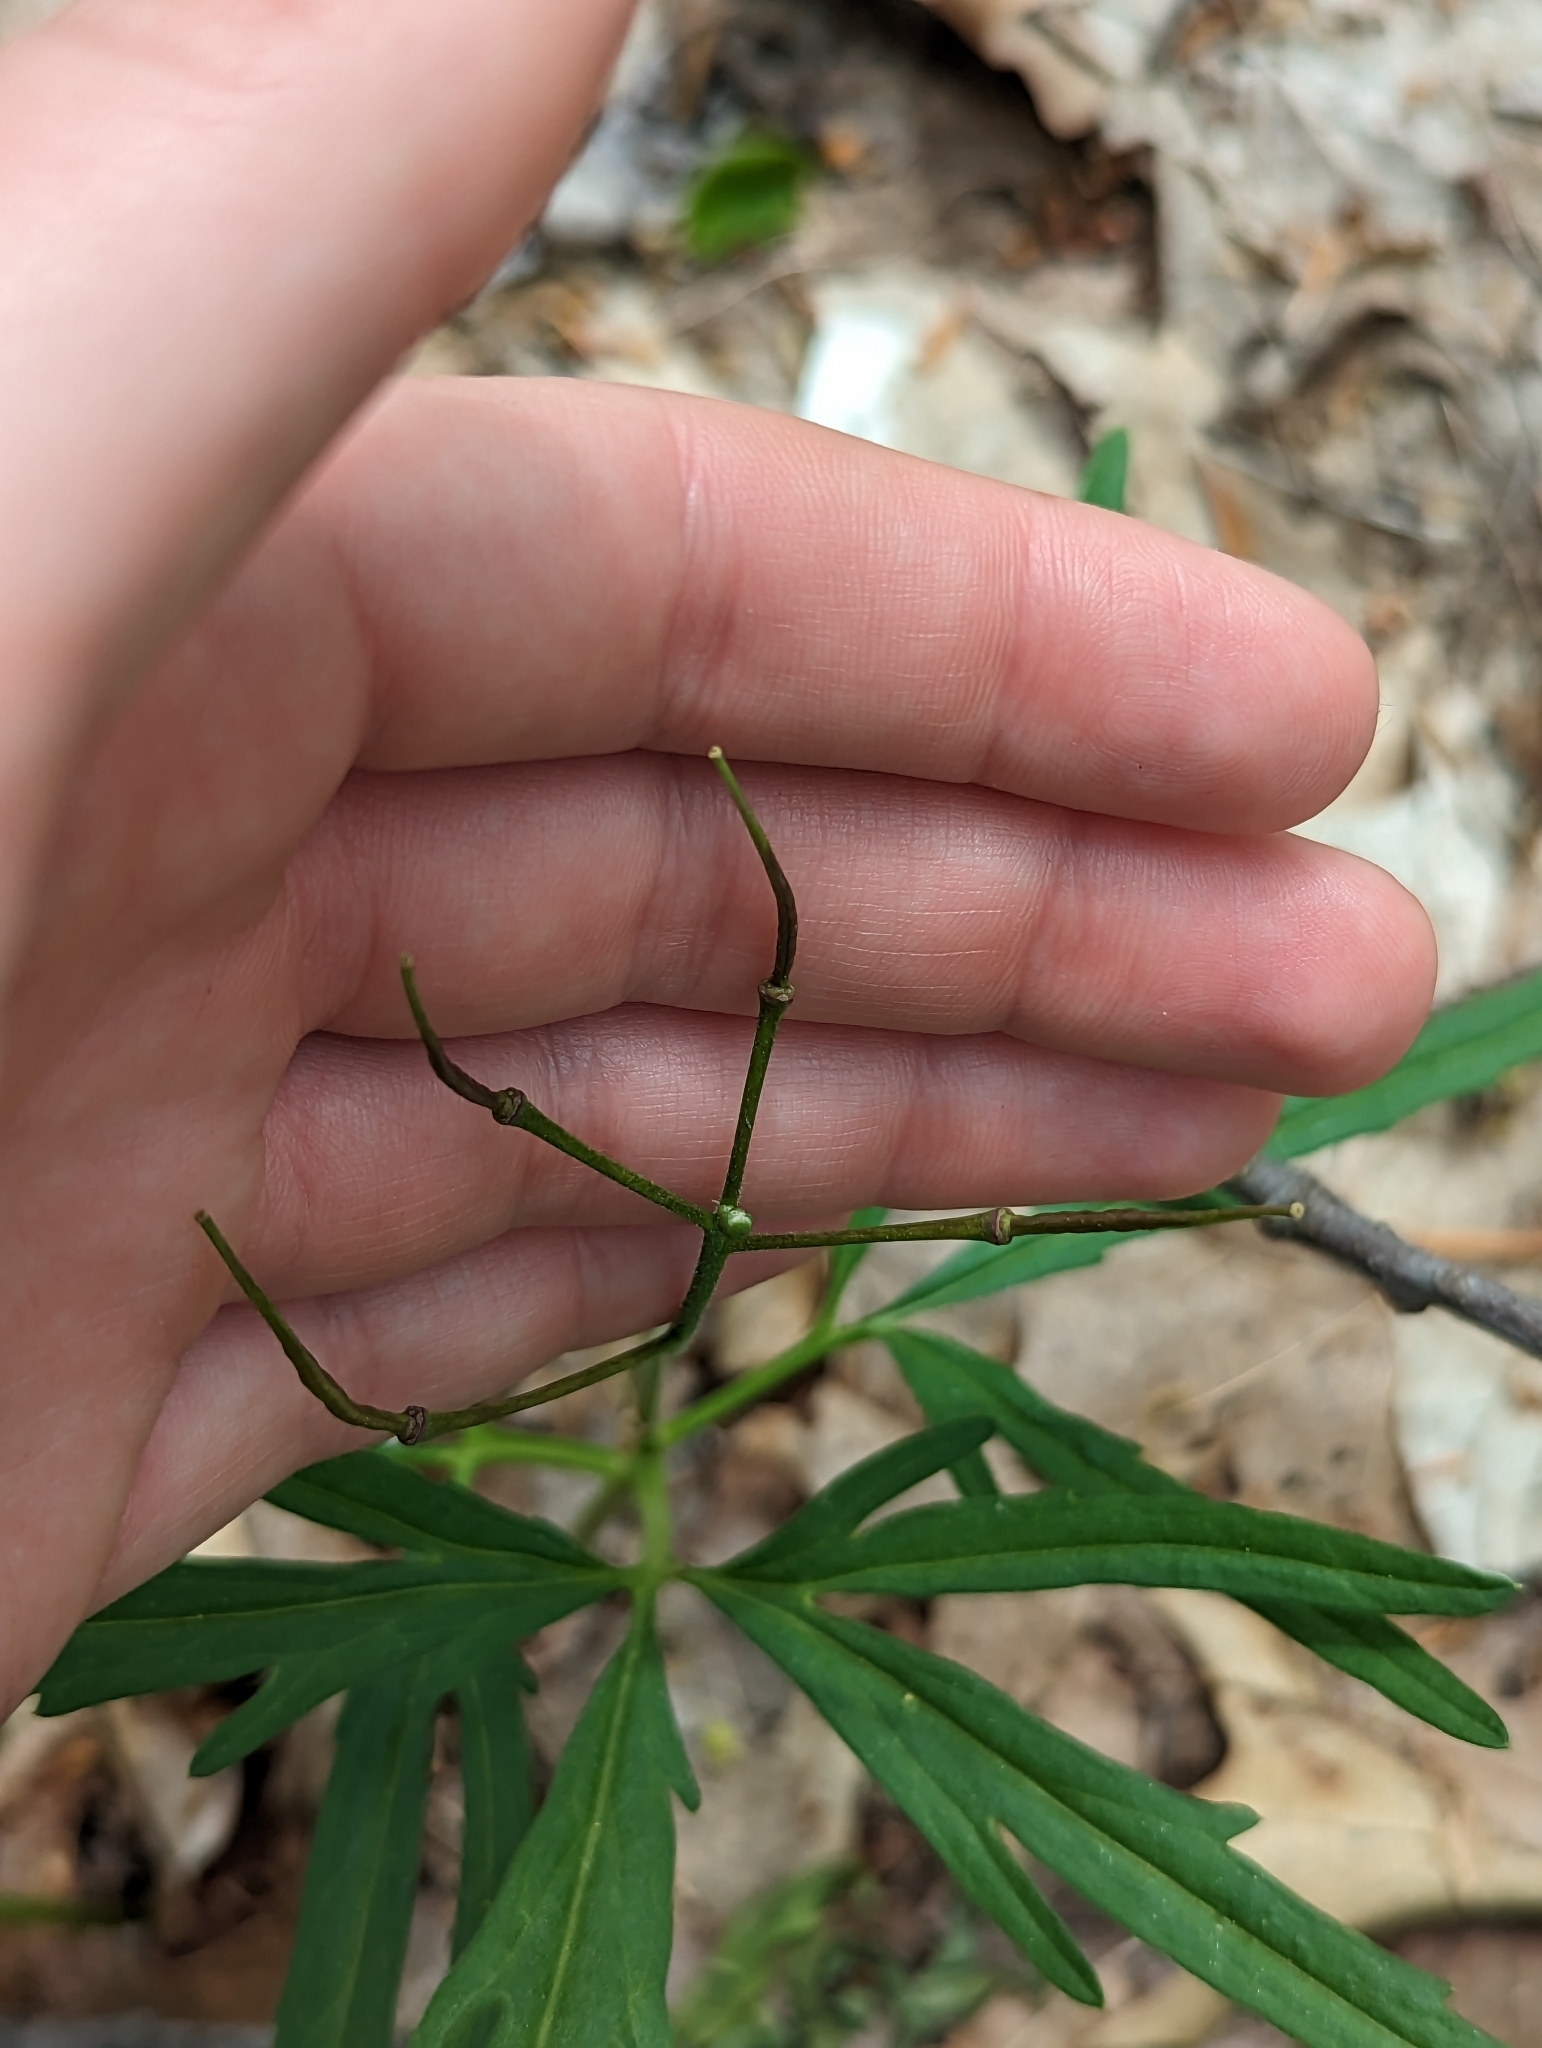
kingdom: Plantae
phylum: Tracheophyta
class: Magnoliopsida
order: Brassicales
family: Brassicaceae
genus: Cardamine
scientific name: Cardamine concatenata
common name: Cut-leaf toothcup
